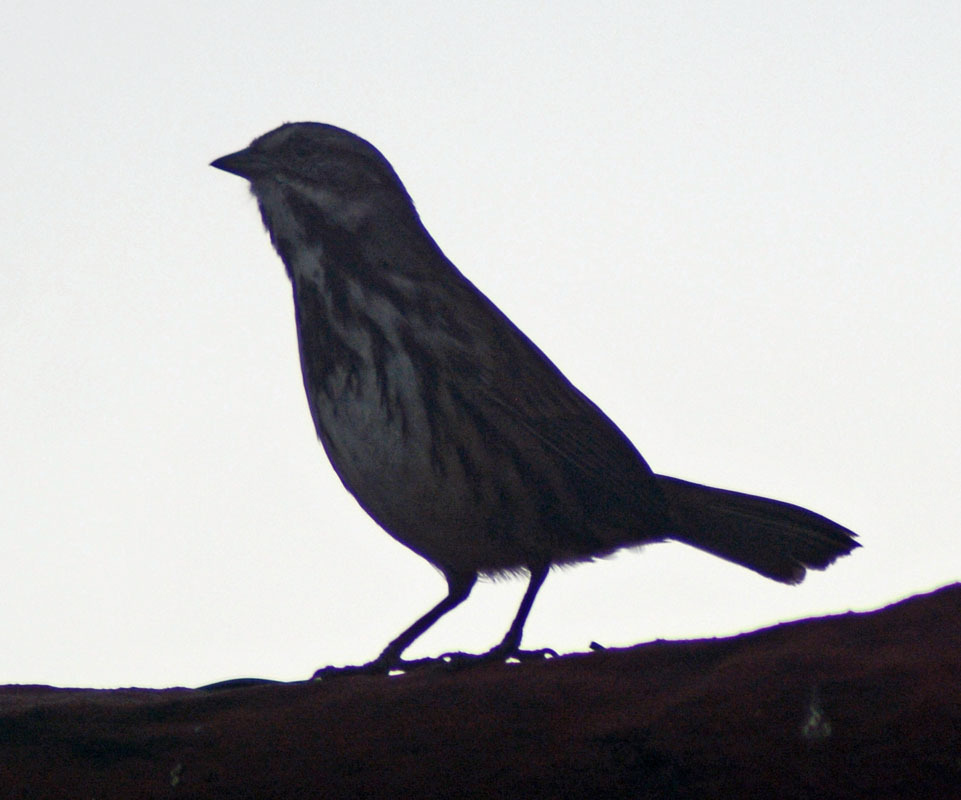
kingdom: Animalia
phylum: Chordata
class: Aves
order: Passeriformes
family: Passerellidae
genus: Melospiza
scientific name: Melospiza melodia
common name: Song sparrow
